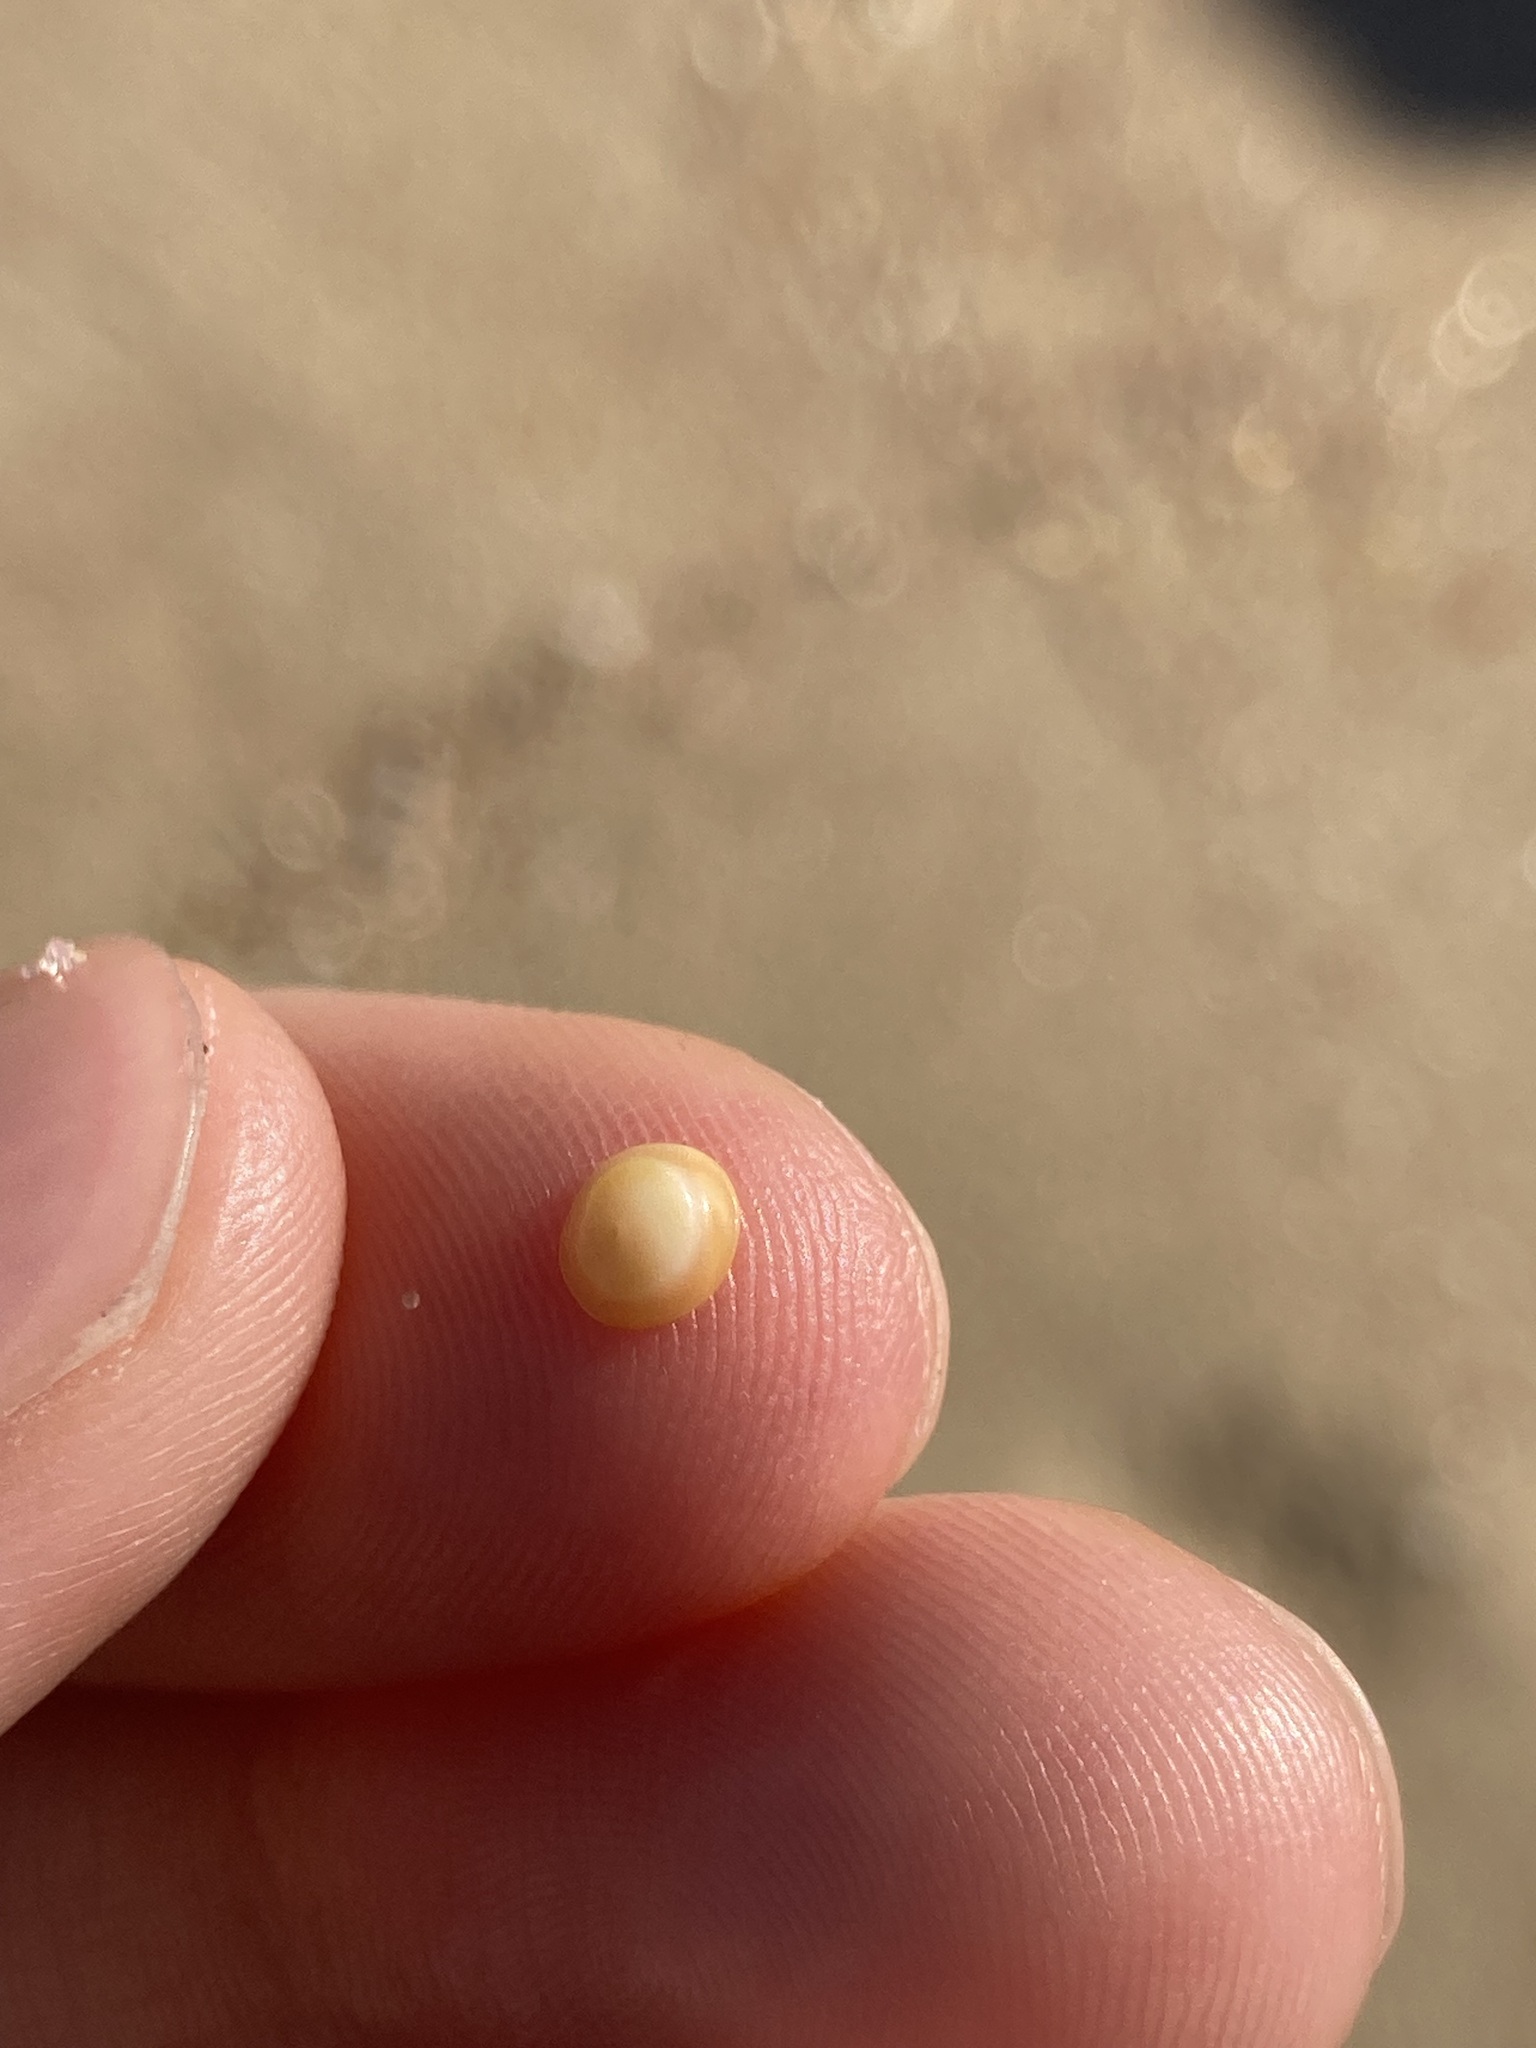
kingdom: Animalia
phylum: Mollusca
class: Gastropoda
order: Trochida
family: Turbinidae
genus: Lunella
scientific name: Lunella undulata
